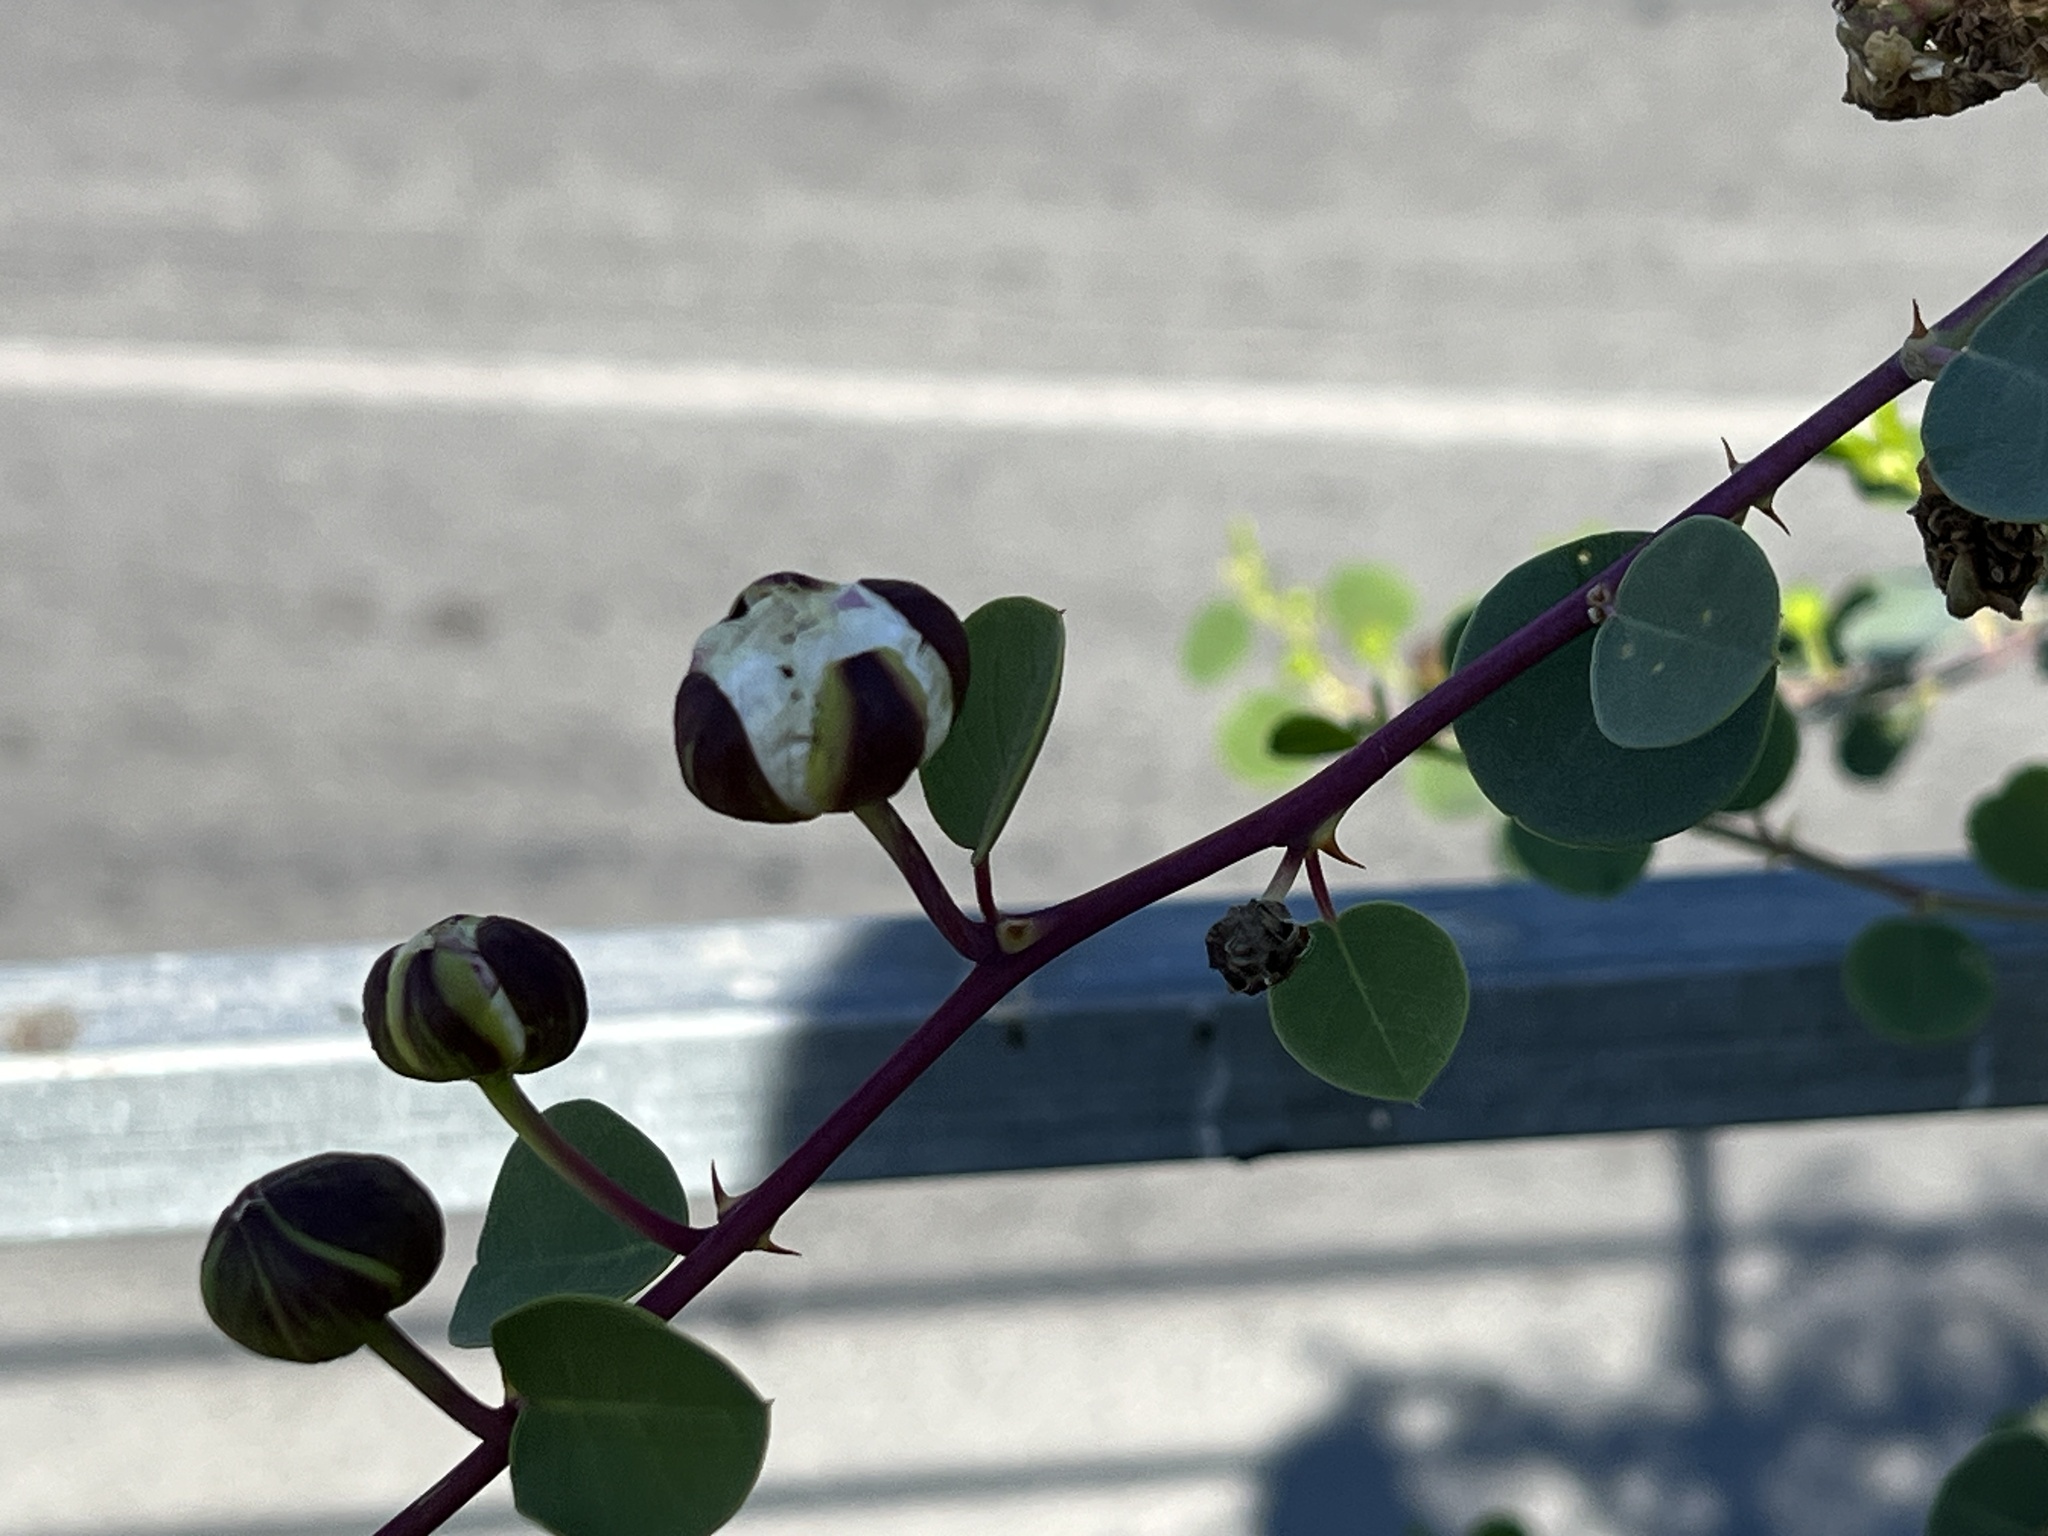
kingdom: Plantae
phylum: Tracheophyta
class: Magnoliopsida
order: Brassicales
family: Capparaceae
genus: Capparis
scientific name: Capparis spinosa
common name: Caper
